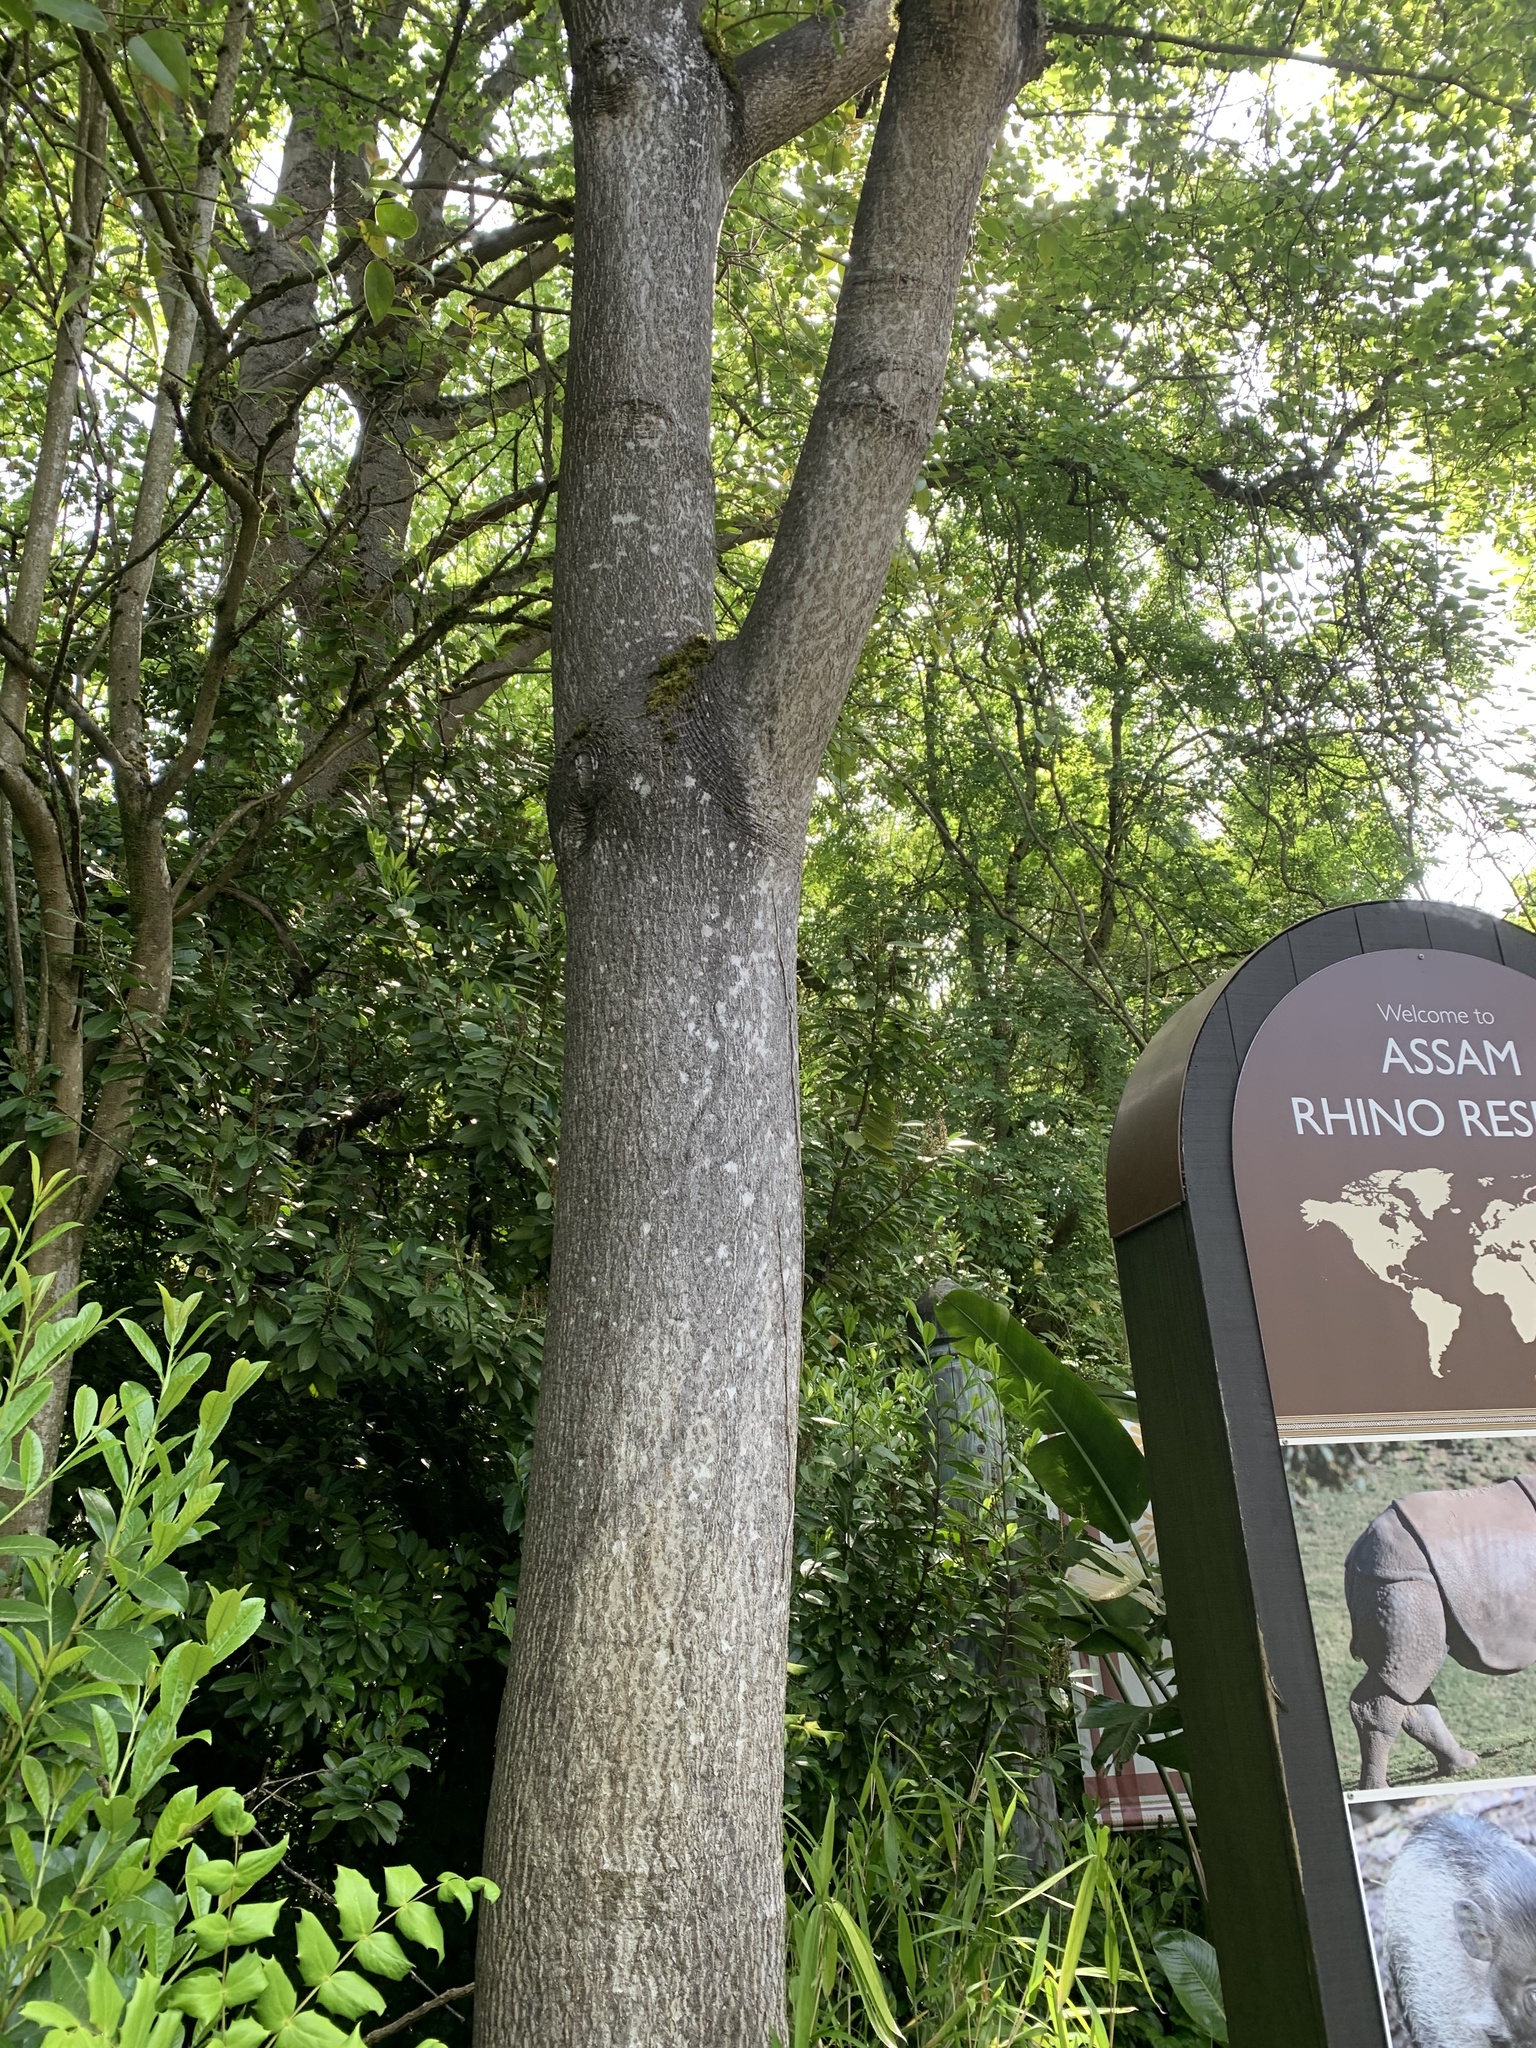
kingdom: Plantae
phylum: Tracheophyta
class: Magnoliopsida
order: Sapindales
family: Simaroubaceae
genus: Ailanthus
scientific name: Ailanthus altissima
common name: Tree-of-heaven
